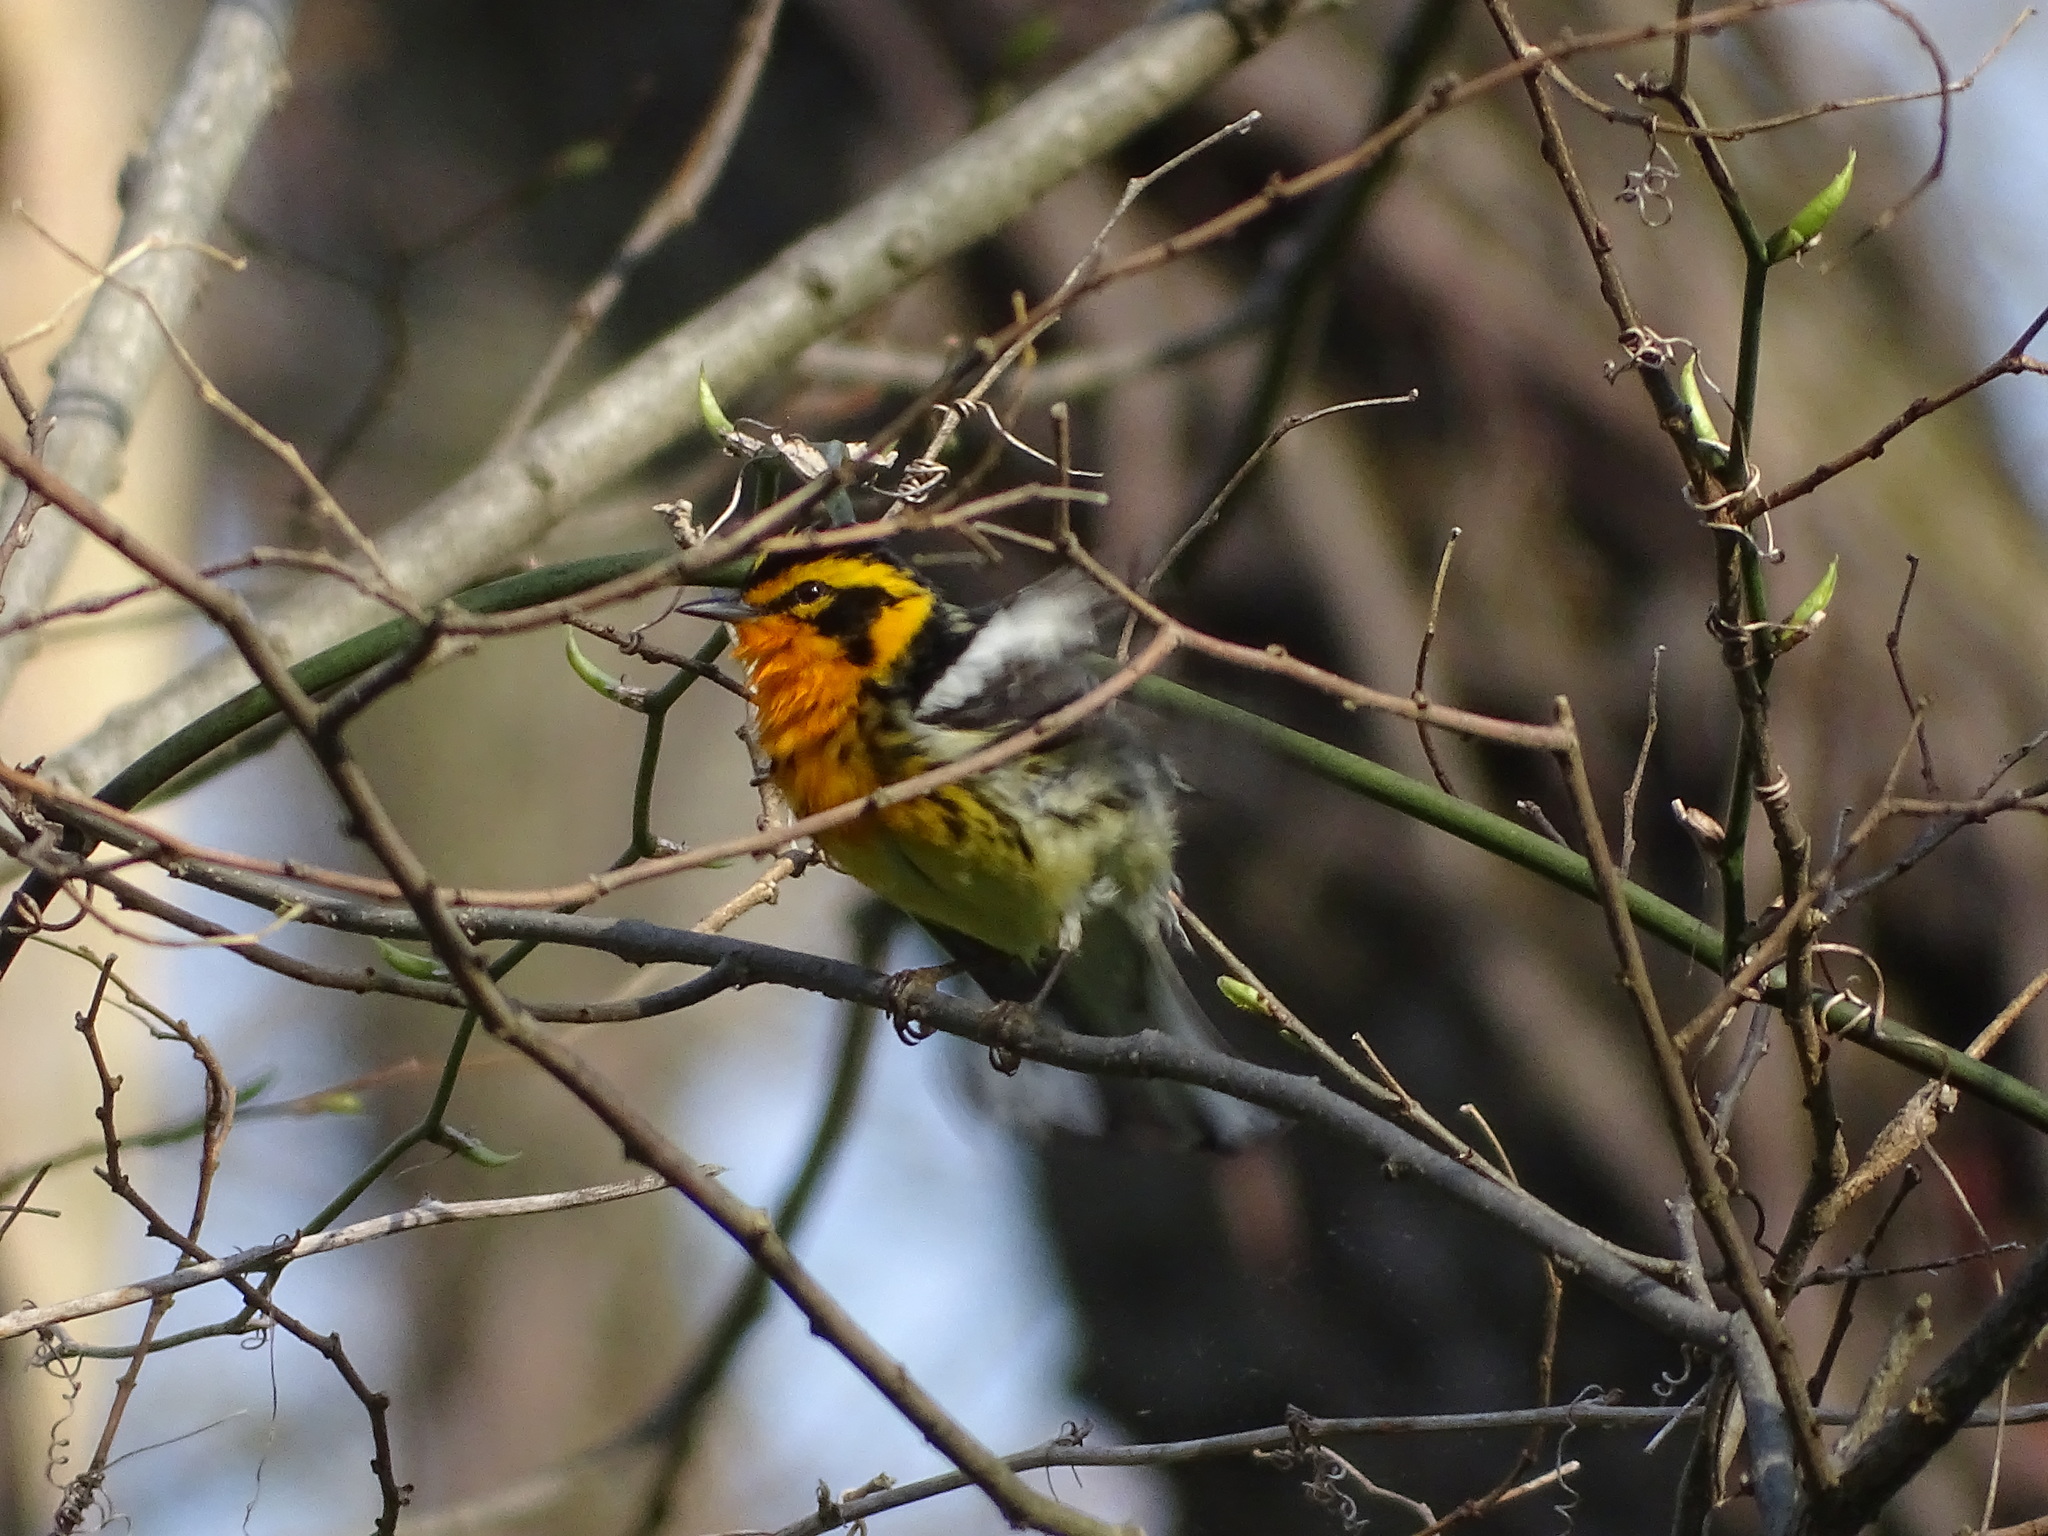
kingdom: Animalia
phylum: Chordata
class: Aves
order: Passeriformes
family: Parulidae
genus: Setophaga
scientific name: Setophaga fusca
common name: Blackburnian warbler
